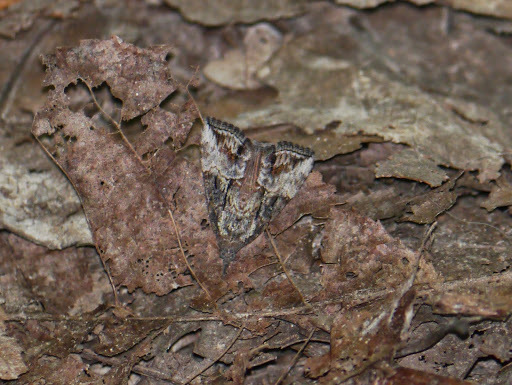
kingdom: Animalia
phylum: Arthropoda
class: Insecta
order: Lepidoptera
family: Erebidae
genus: Hypena
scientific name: Hypena scabra
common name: Green cloverworm
